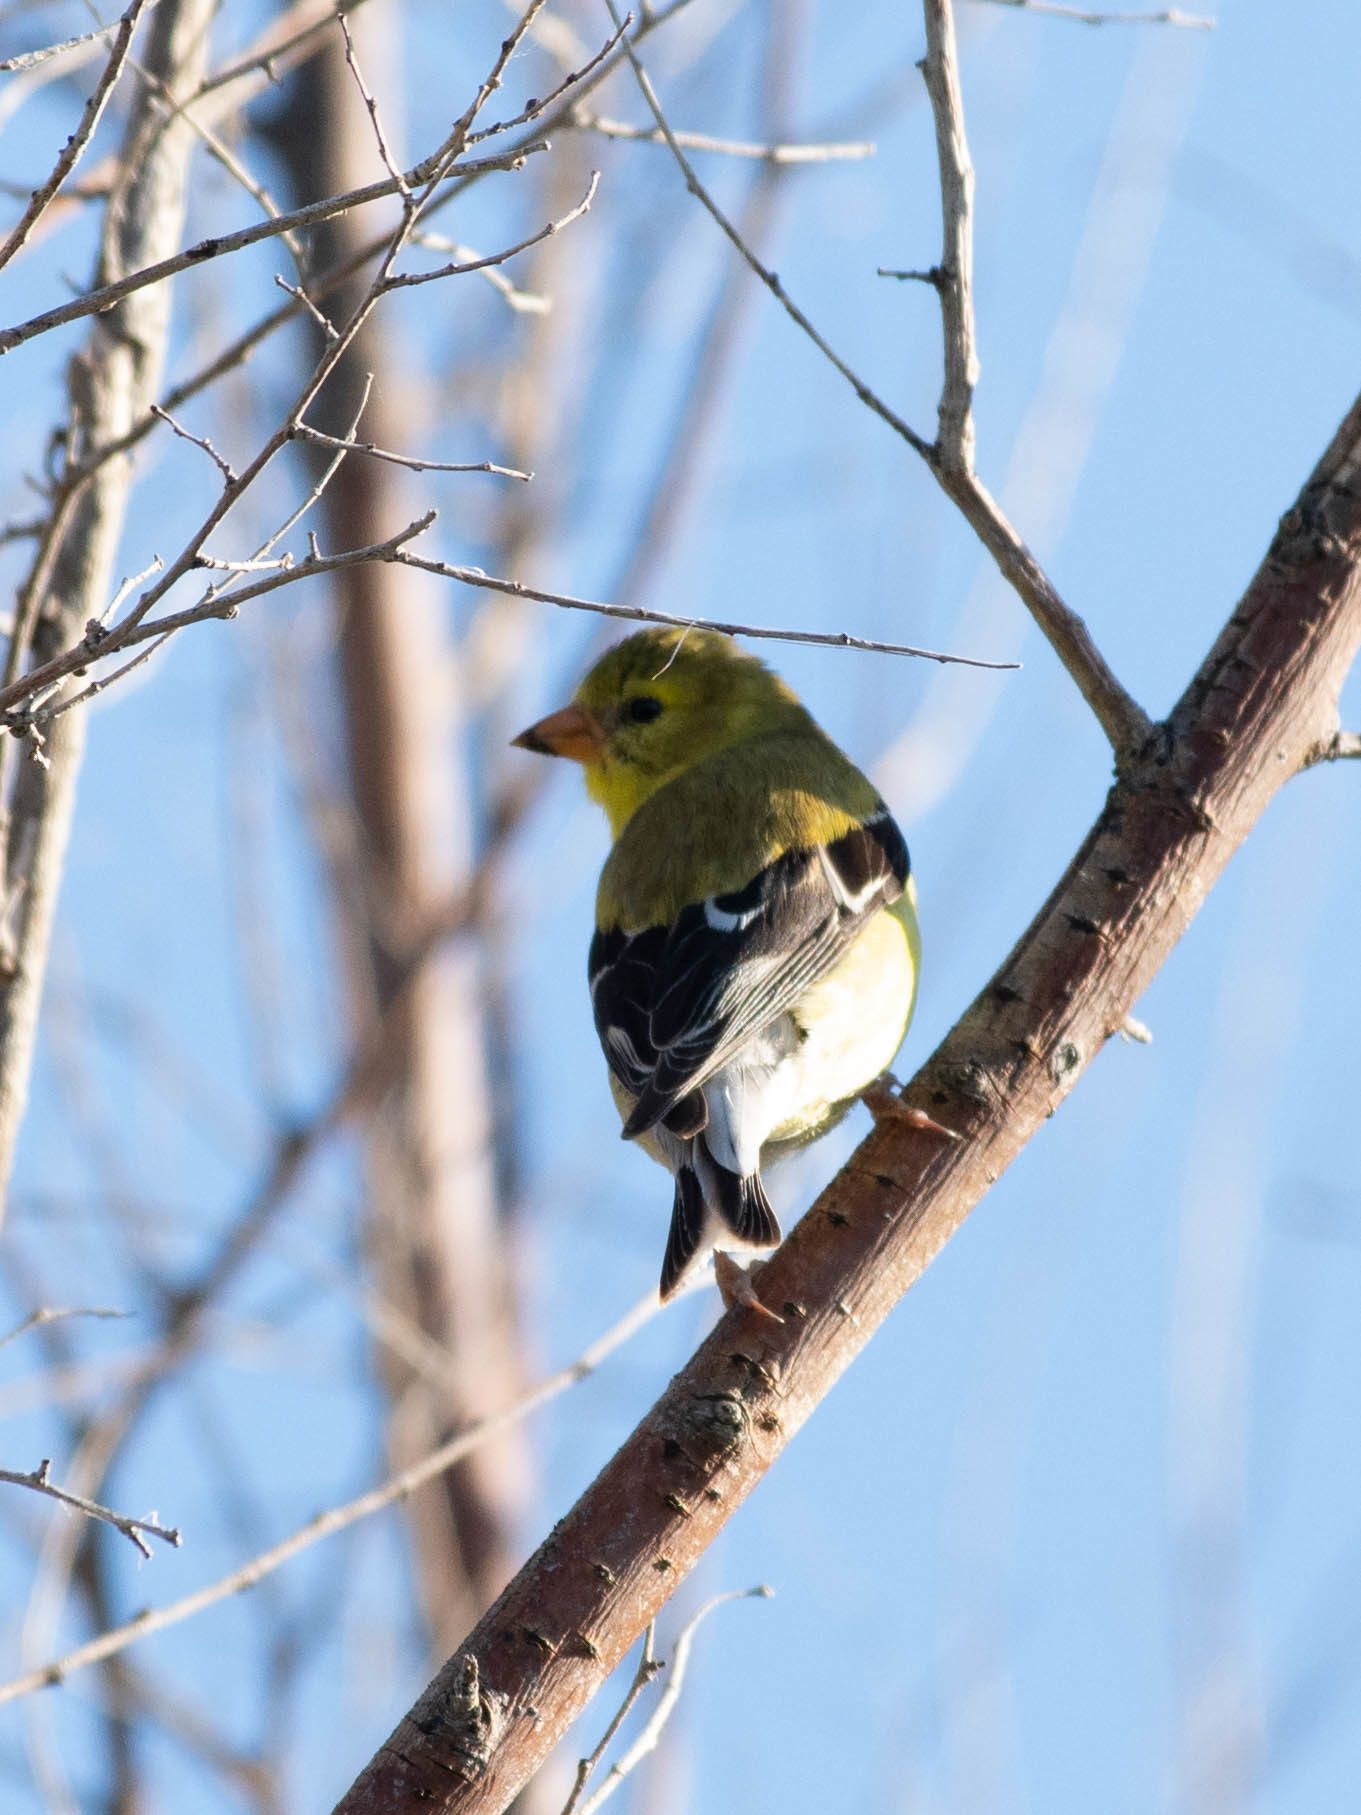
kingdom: Animalia
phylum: Chordata
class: Aves
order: Passeriformes
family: Fringillidae
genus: Spinus
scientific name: Spinus tristis
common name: American goldfinch
